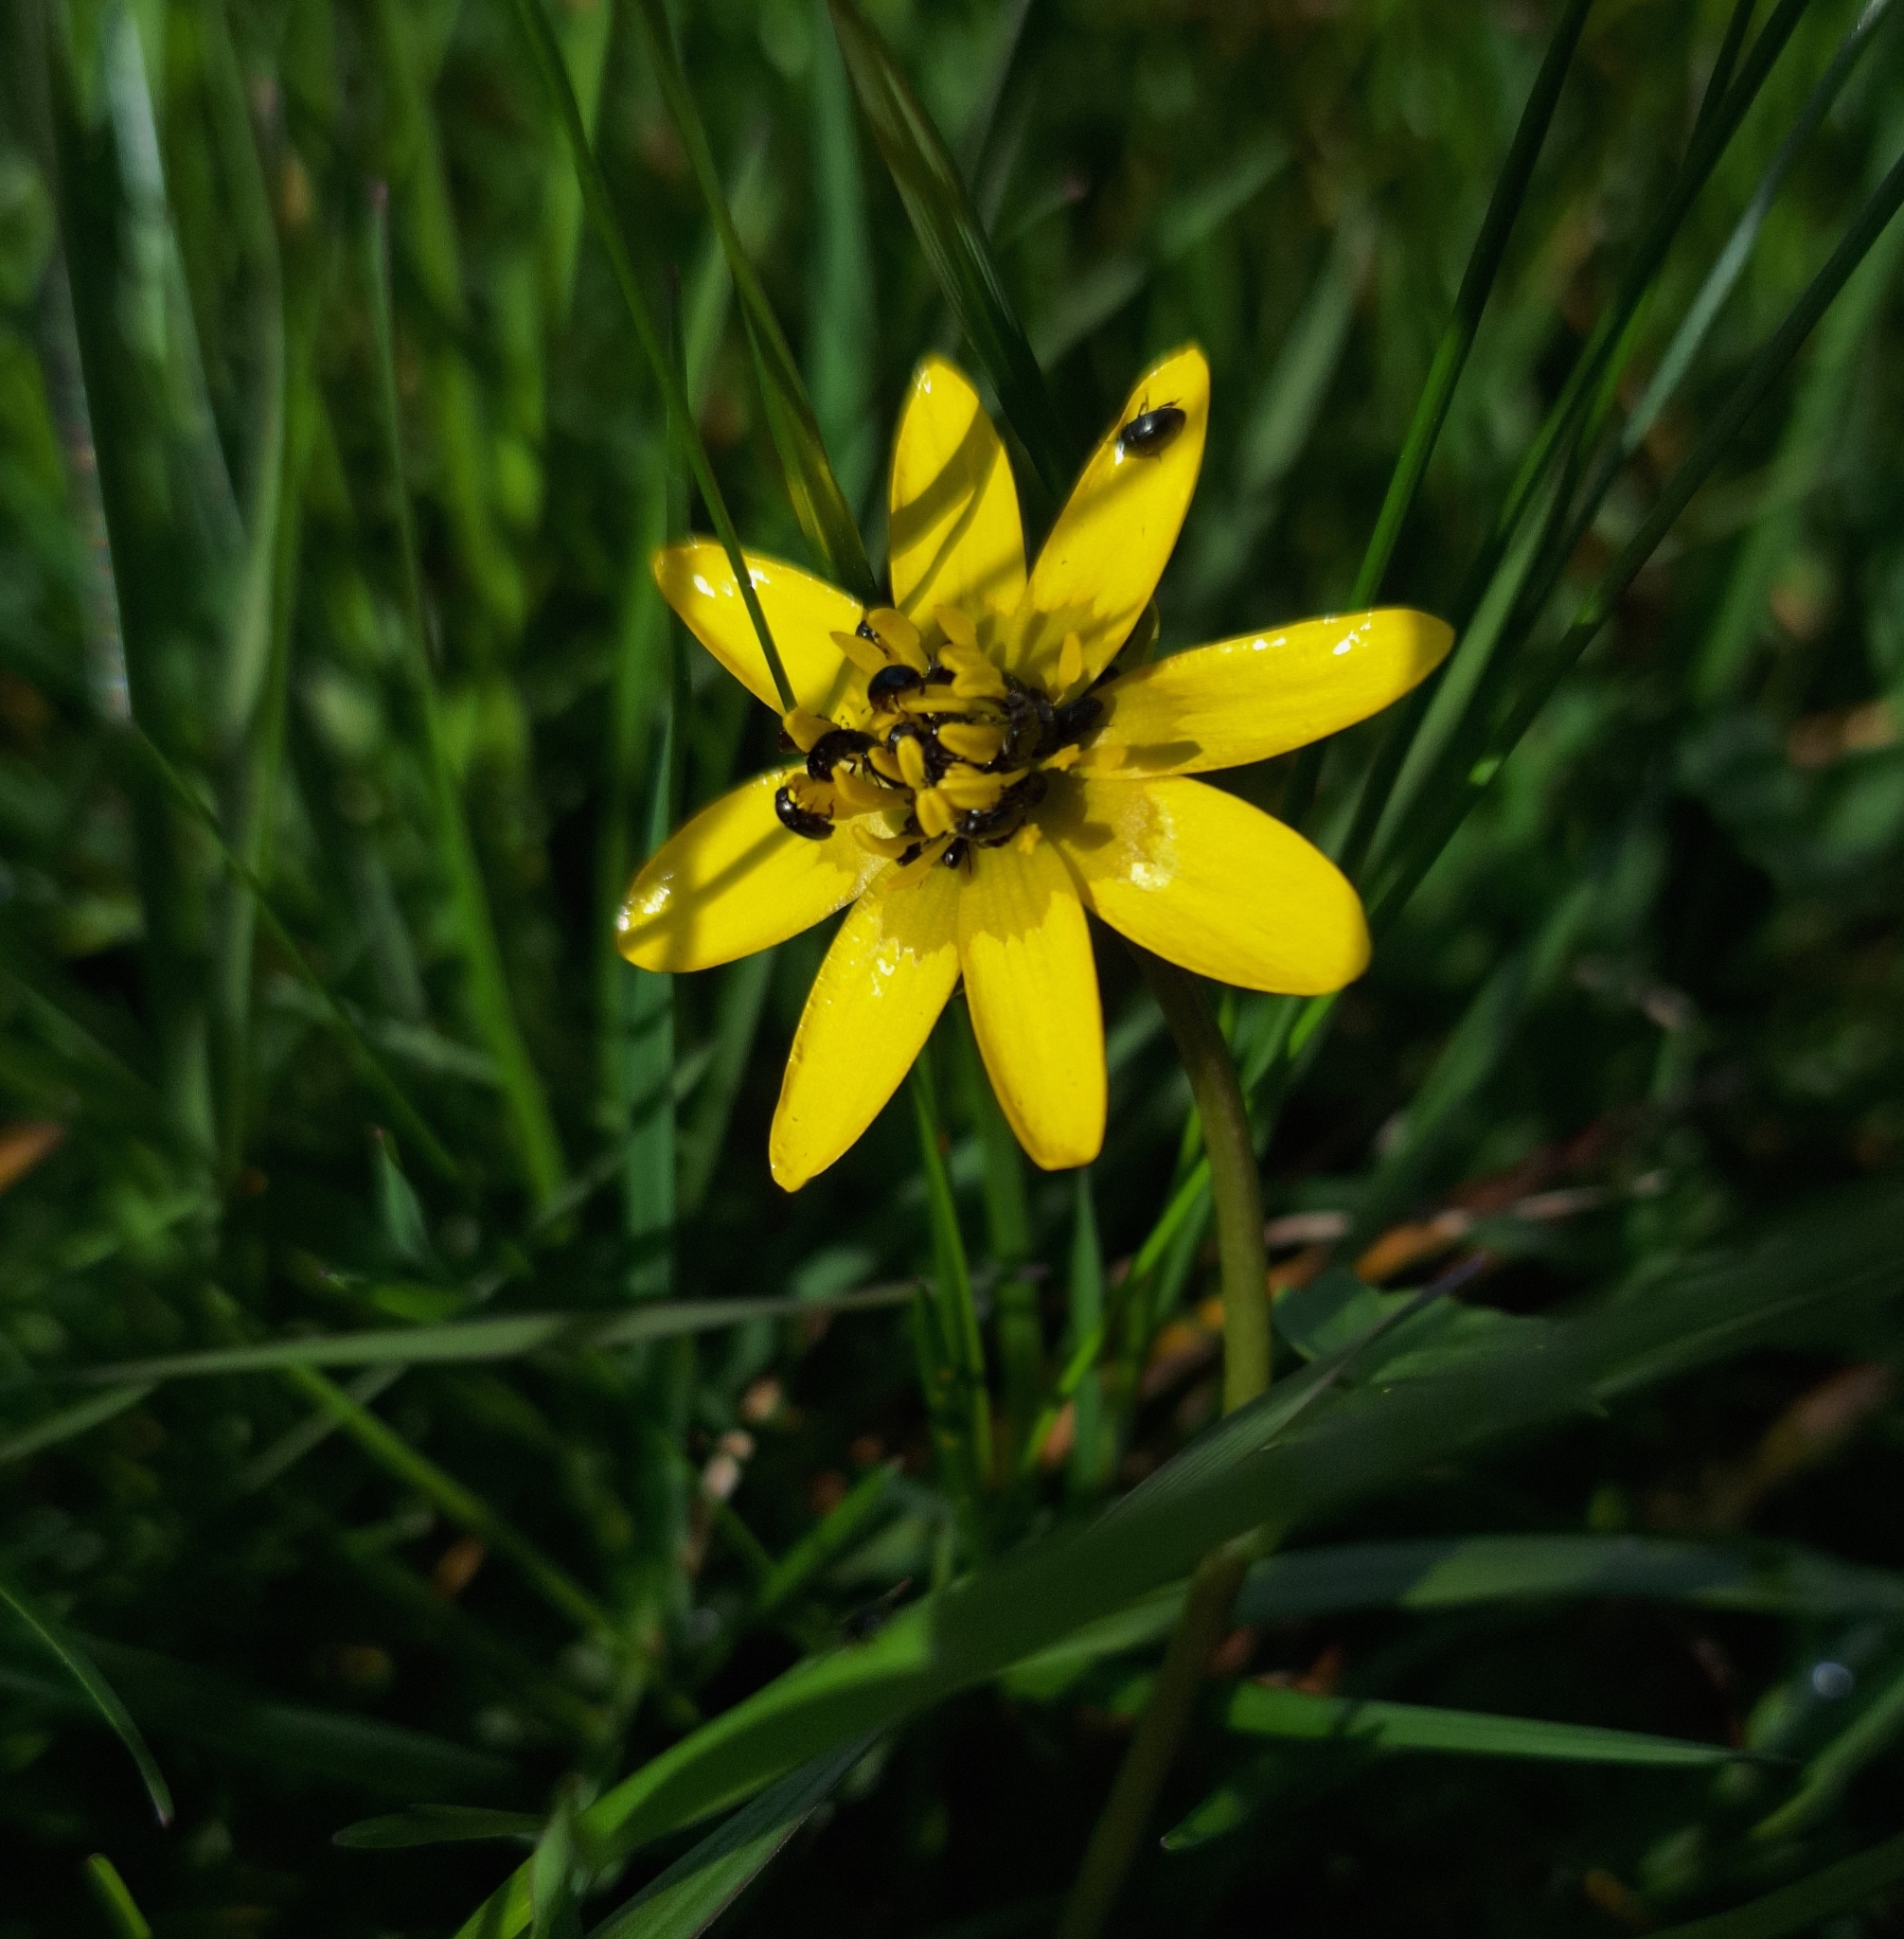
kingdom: Plantae
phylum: Tracheophyta
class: Magnoliopsida
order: Ranunculales
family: Ranunculaceae
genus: Ficaria
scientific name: Ficaria verna
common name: Lesser celandine
